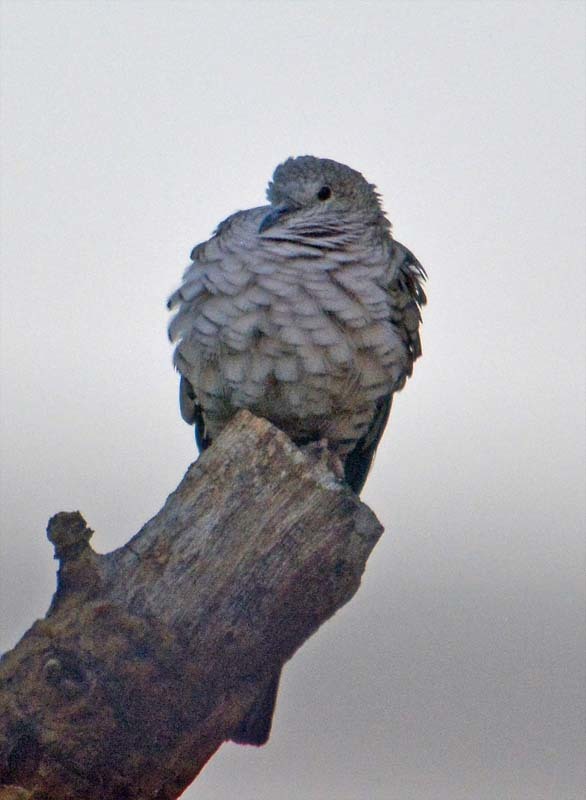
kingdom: Animalia
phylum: Chordata
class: Aves
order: Columbiformes
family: Columbidae
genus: Columbina
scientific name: Columbina inca
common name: Inca dove
